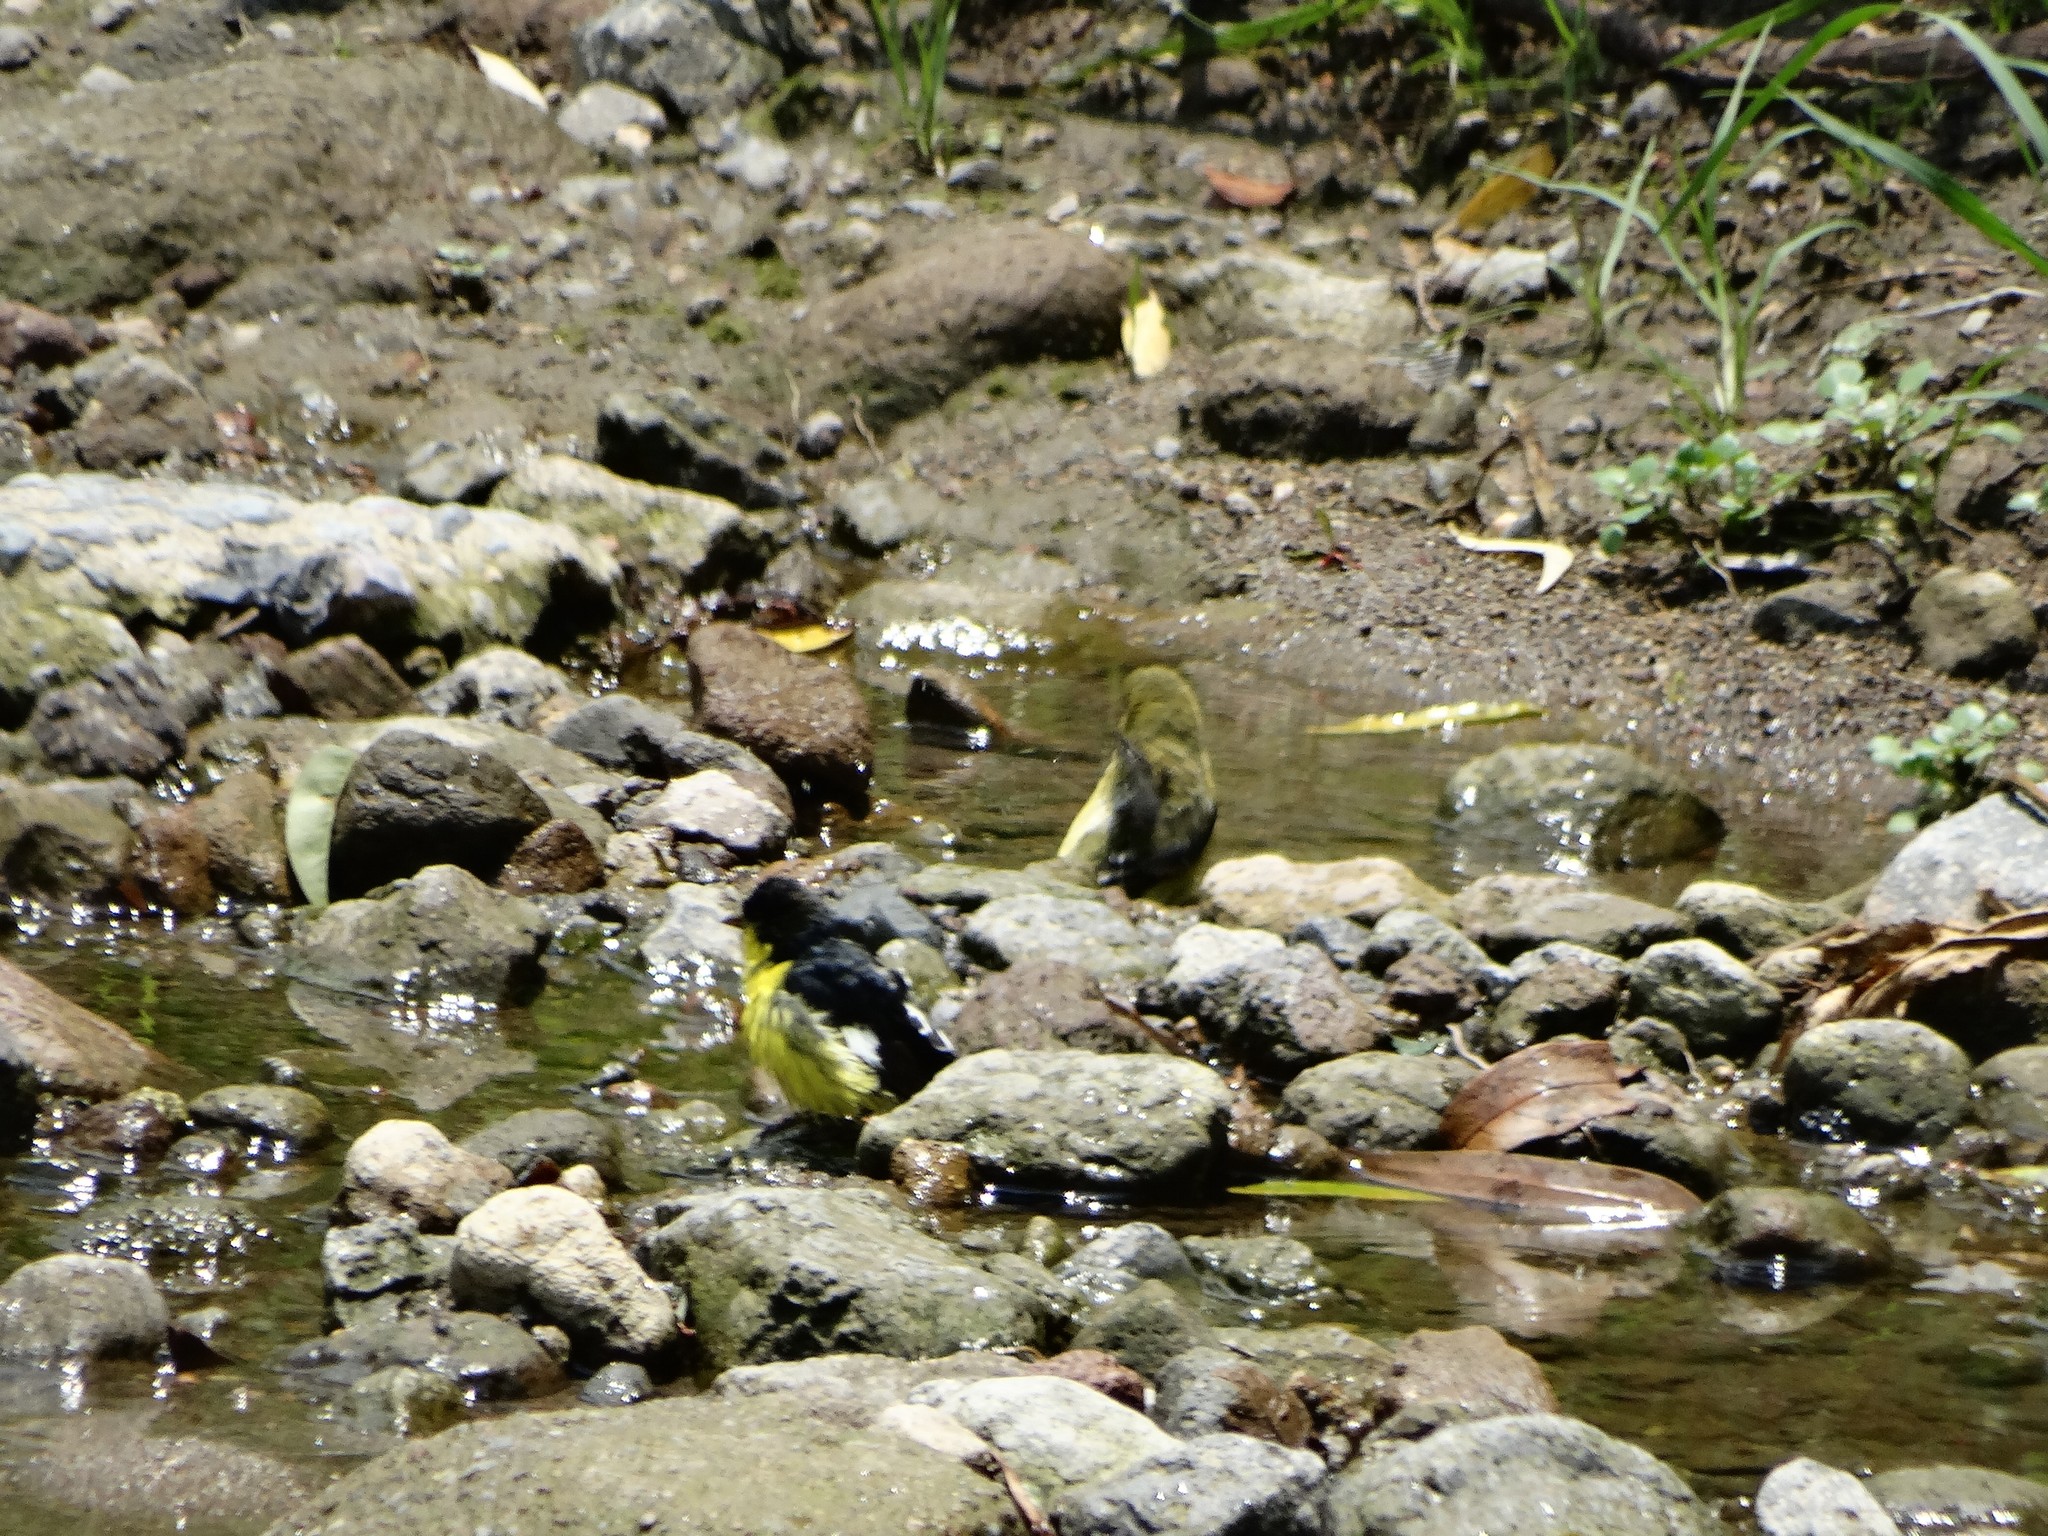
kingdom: Animalia
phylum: Chordata
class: Aves
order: Passeriformes
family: Fringillidae
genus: Spinus
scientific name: Spinus psaltria
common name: Lesser goldfinch
